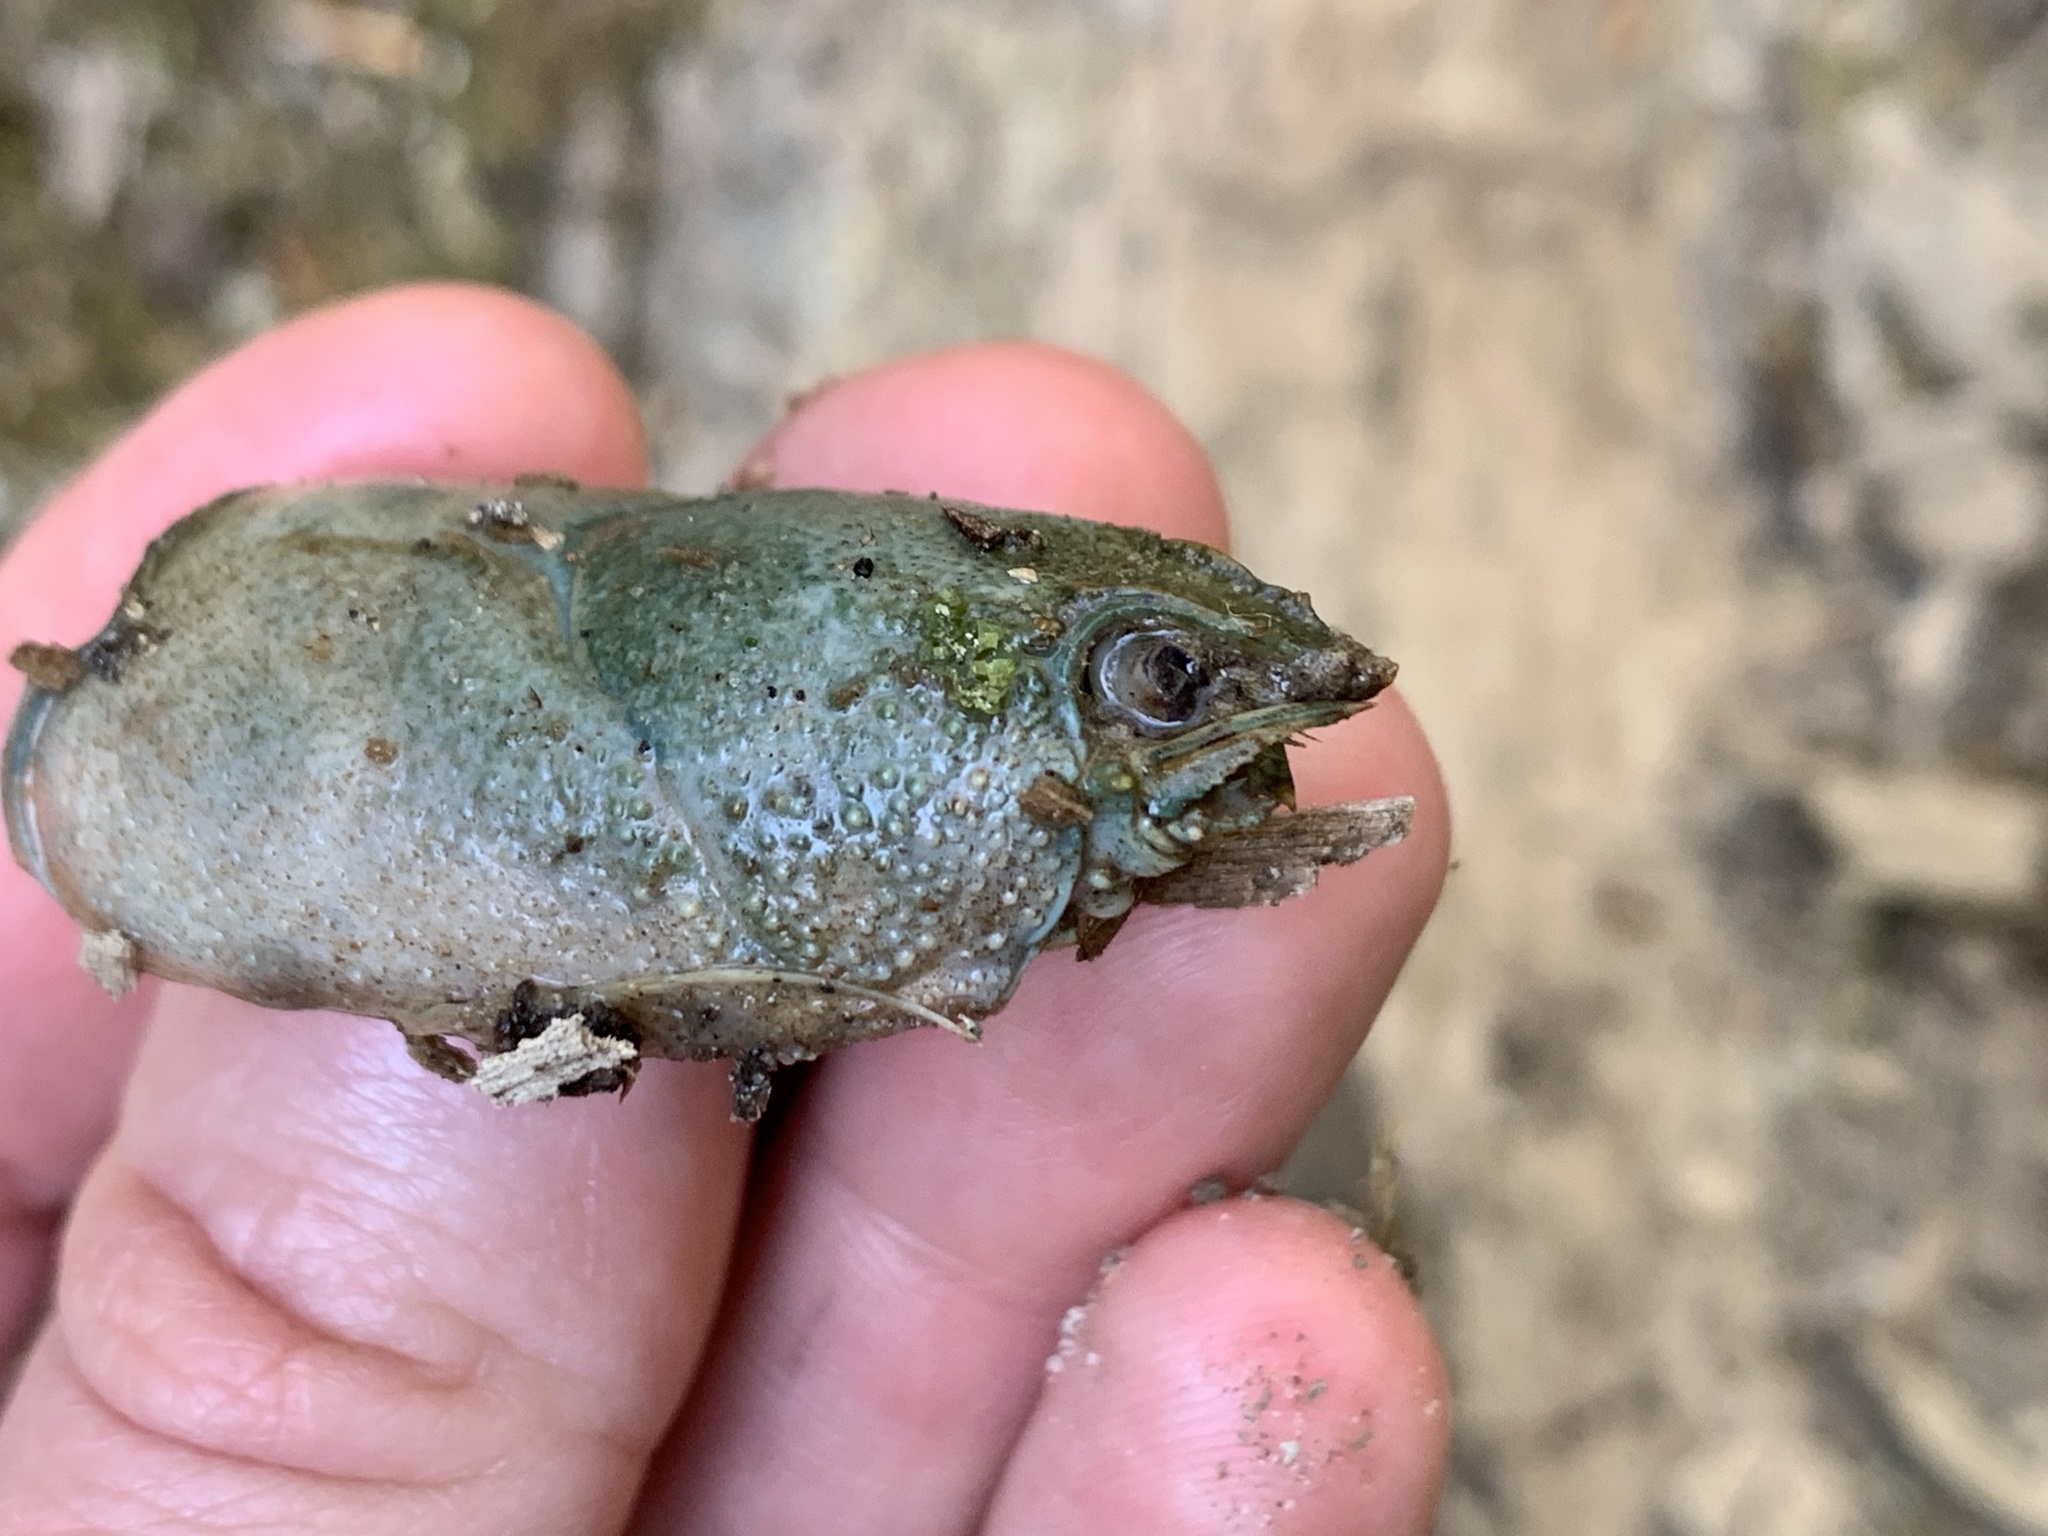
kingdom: Animalia
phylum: Arthropoda
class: Malacostraca
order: Decapoda
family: Astacidae
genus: Austropotamobius
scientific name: Austropotamobius torrentium
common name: Stone crayfish
